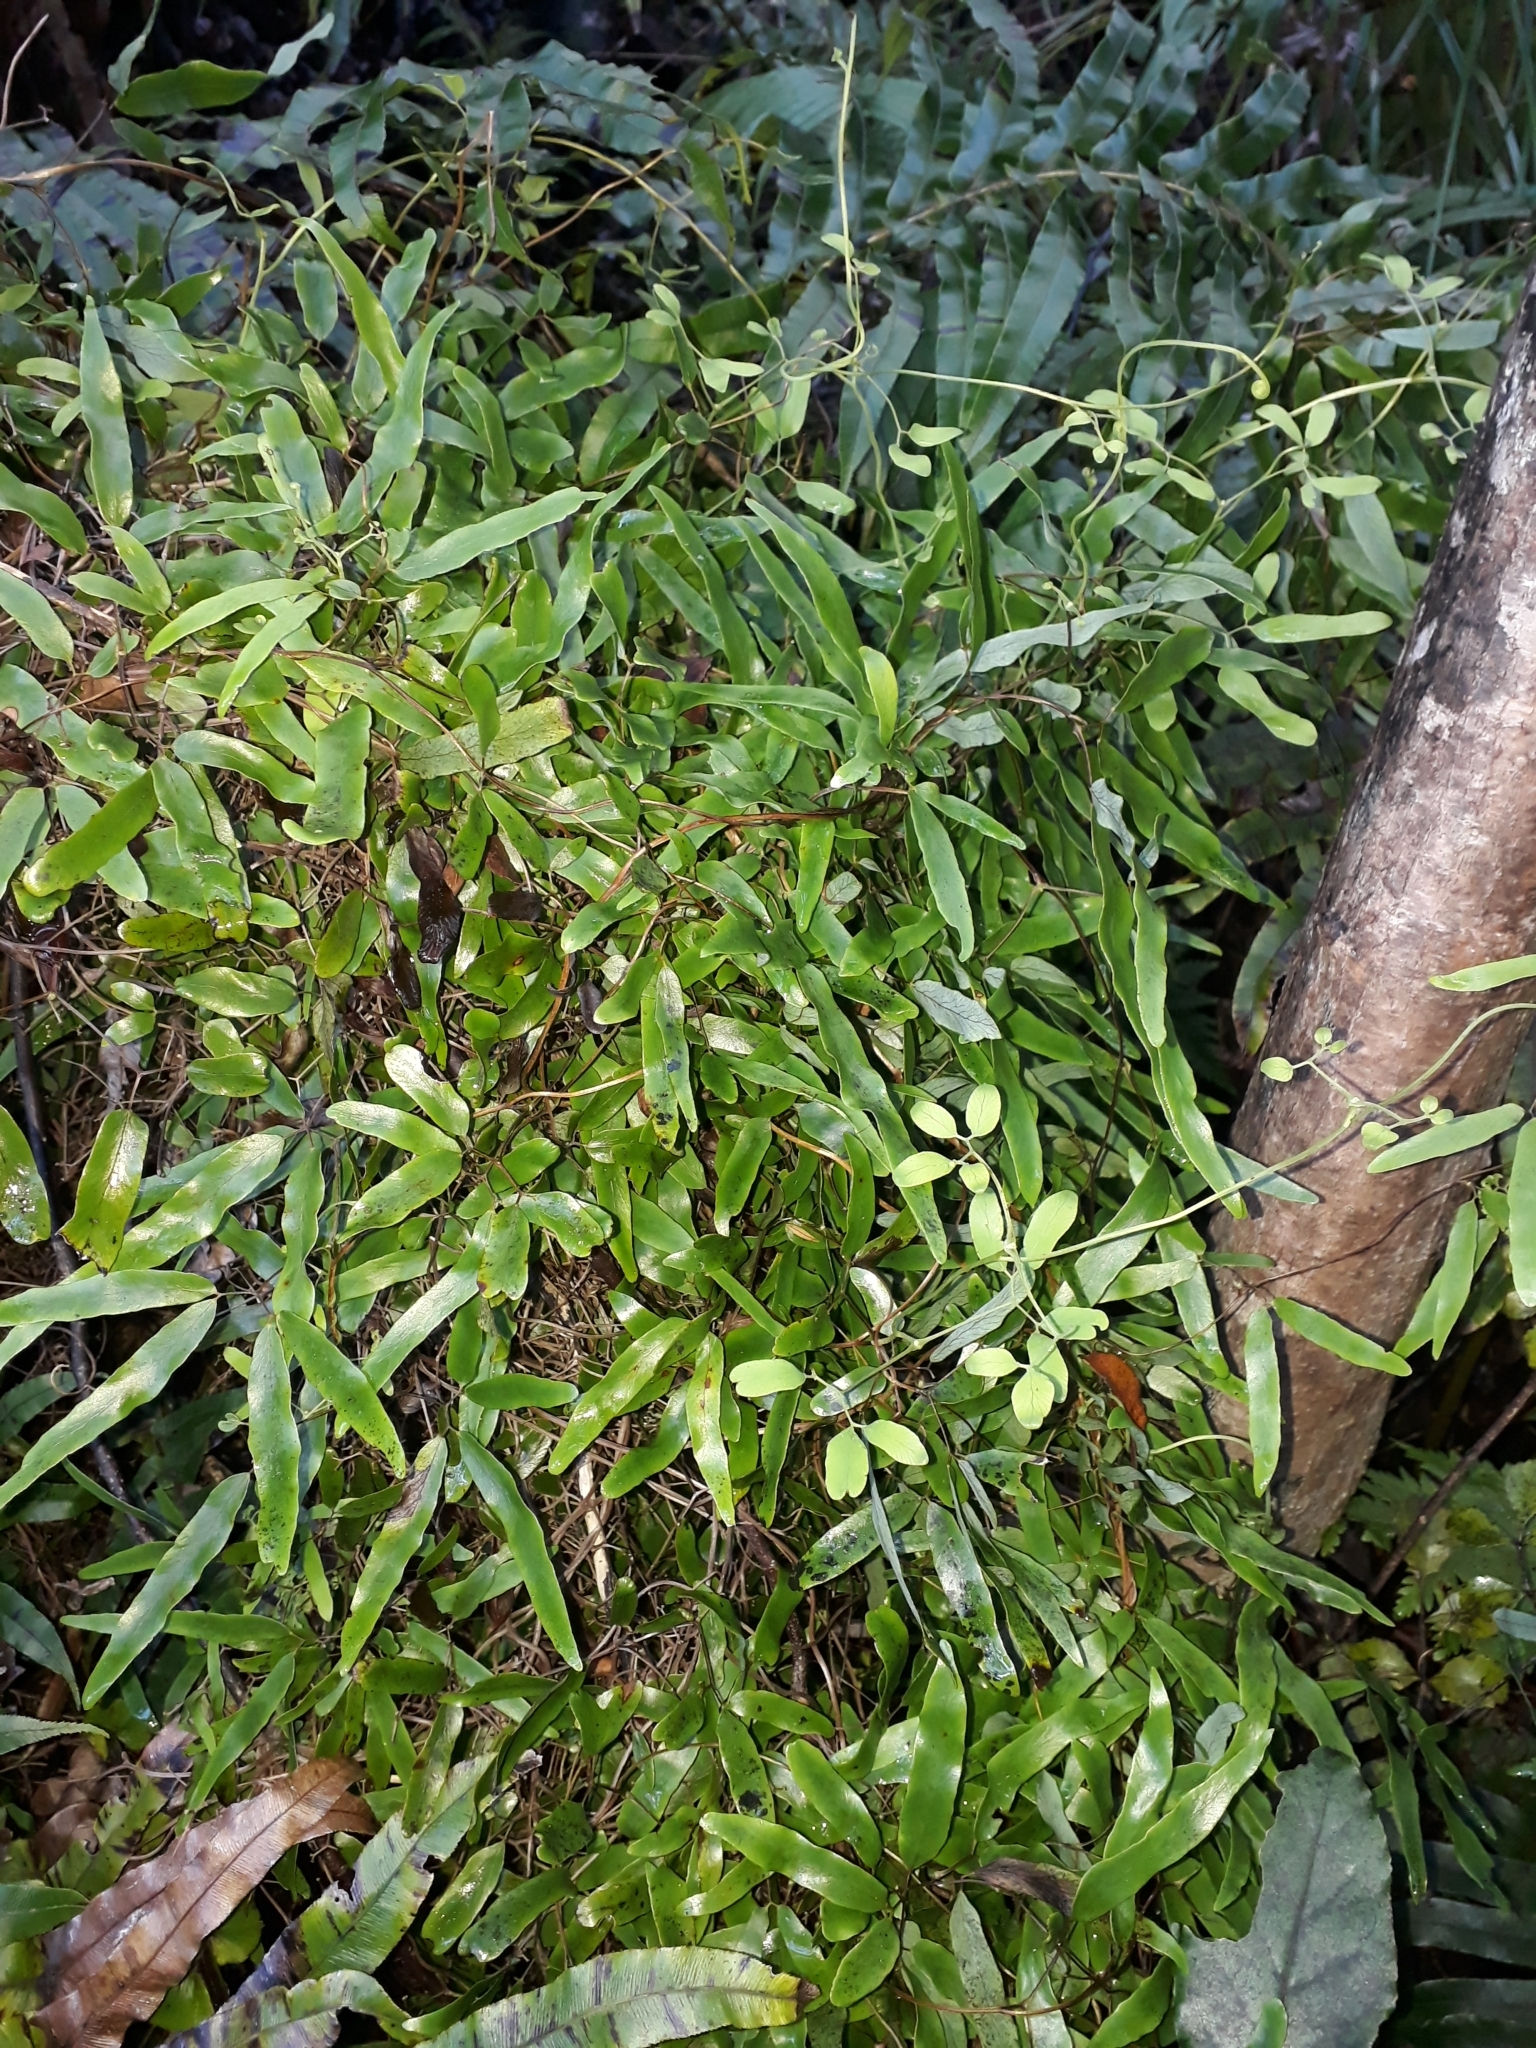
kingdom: Plantae
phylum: Tracheophyta
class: Polypodiopsida
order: Schizaeales
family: Lygodiaceae
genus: Lygodium
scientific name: Lygodium articulatum
